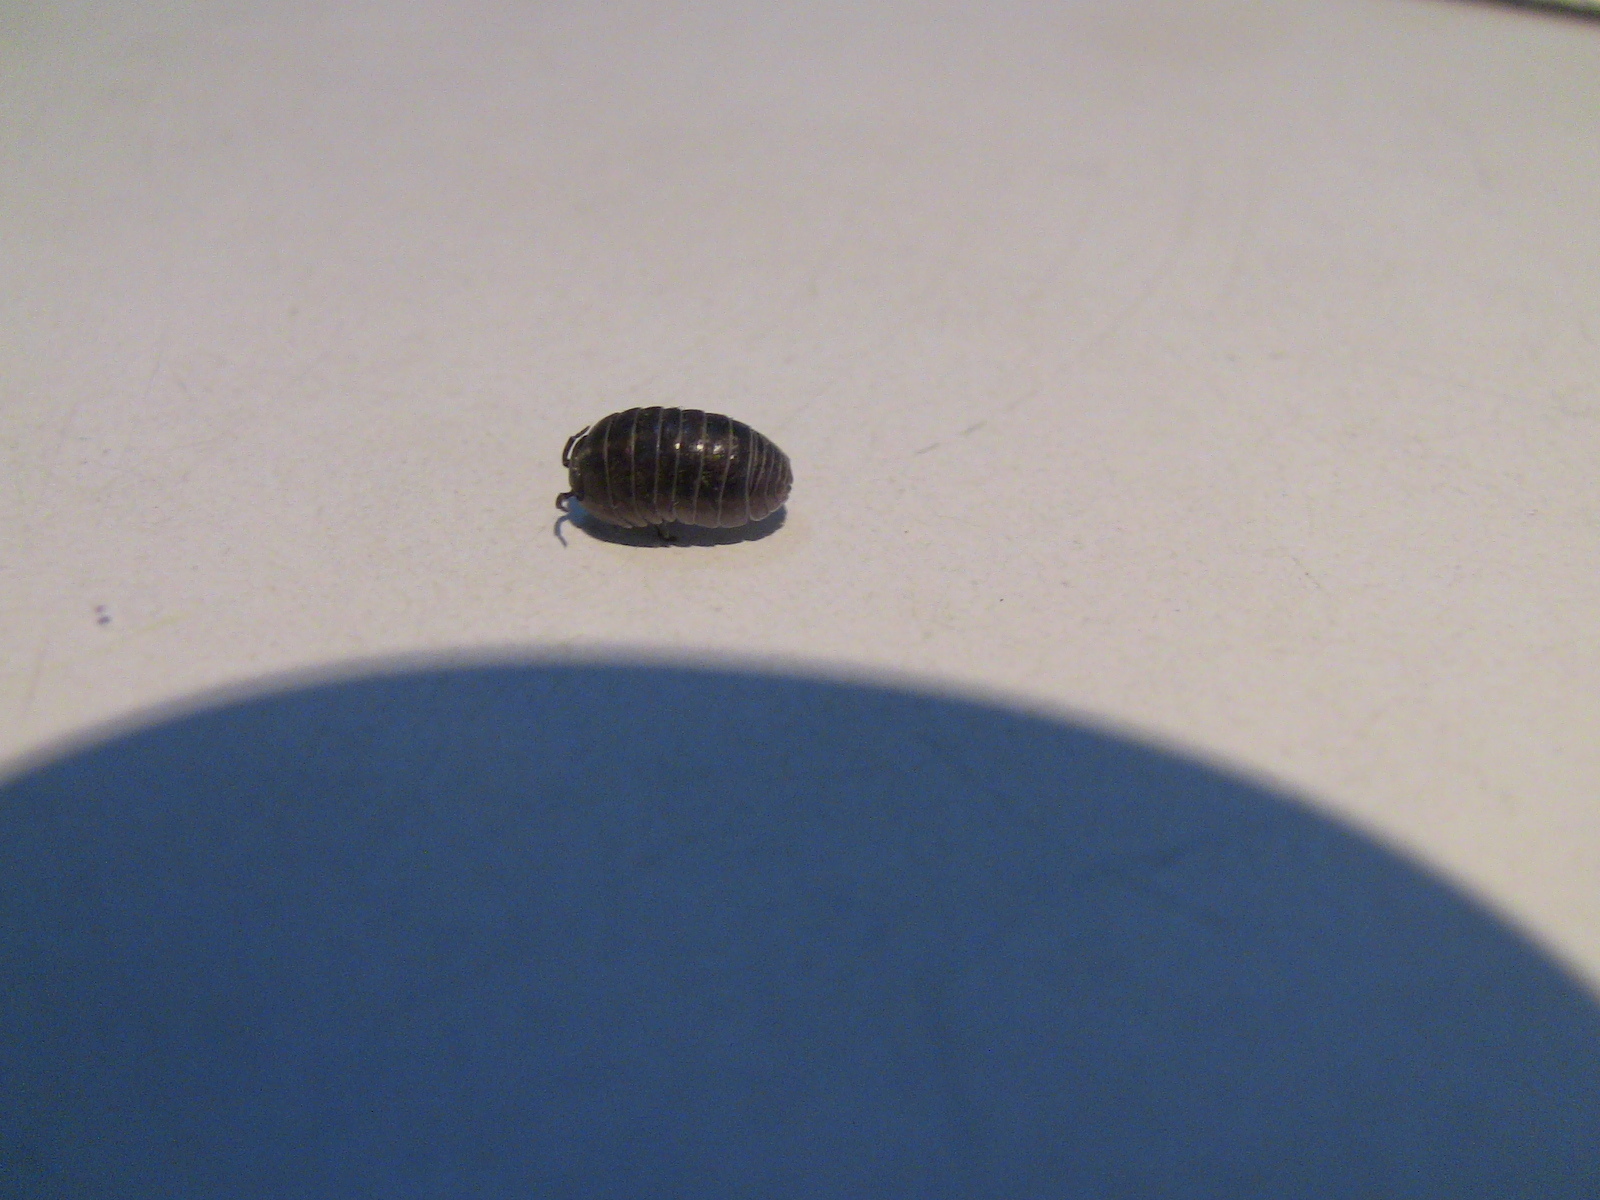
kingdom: Animalia
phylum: Arthropoda
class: Malacostraca
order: Isopoda
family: Armadillidiidae
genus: Armadillidium
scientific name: Armadillidium vulgare
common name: Common pill woodlouse
